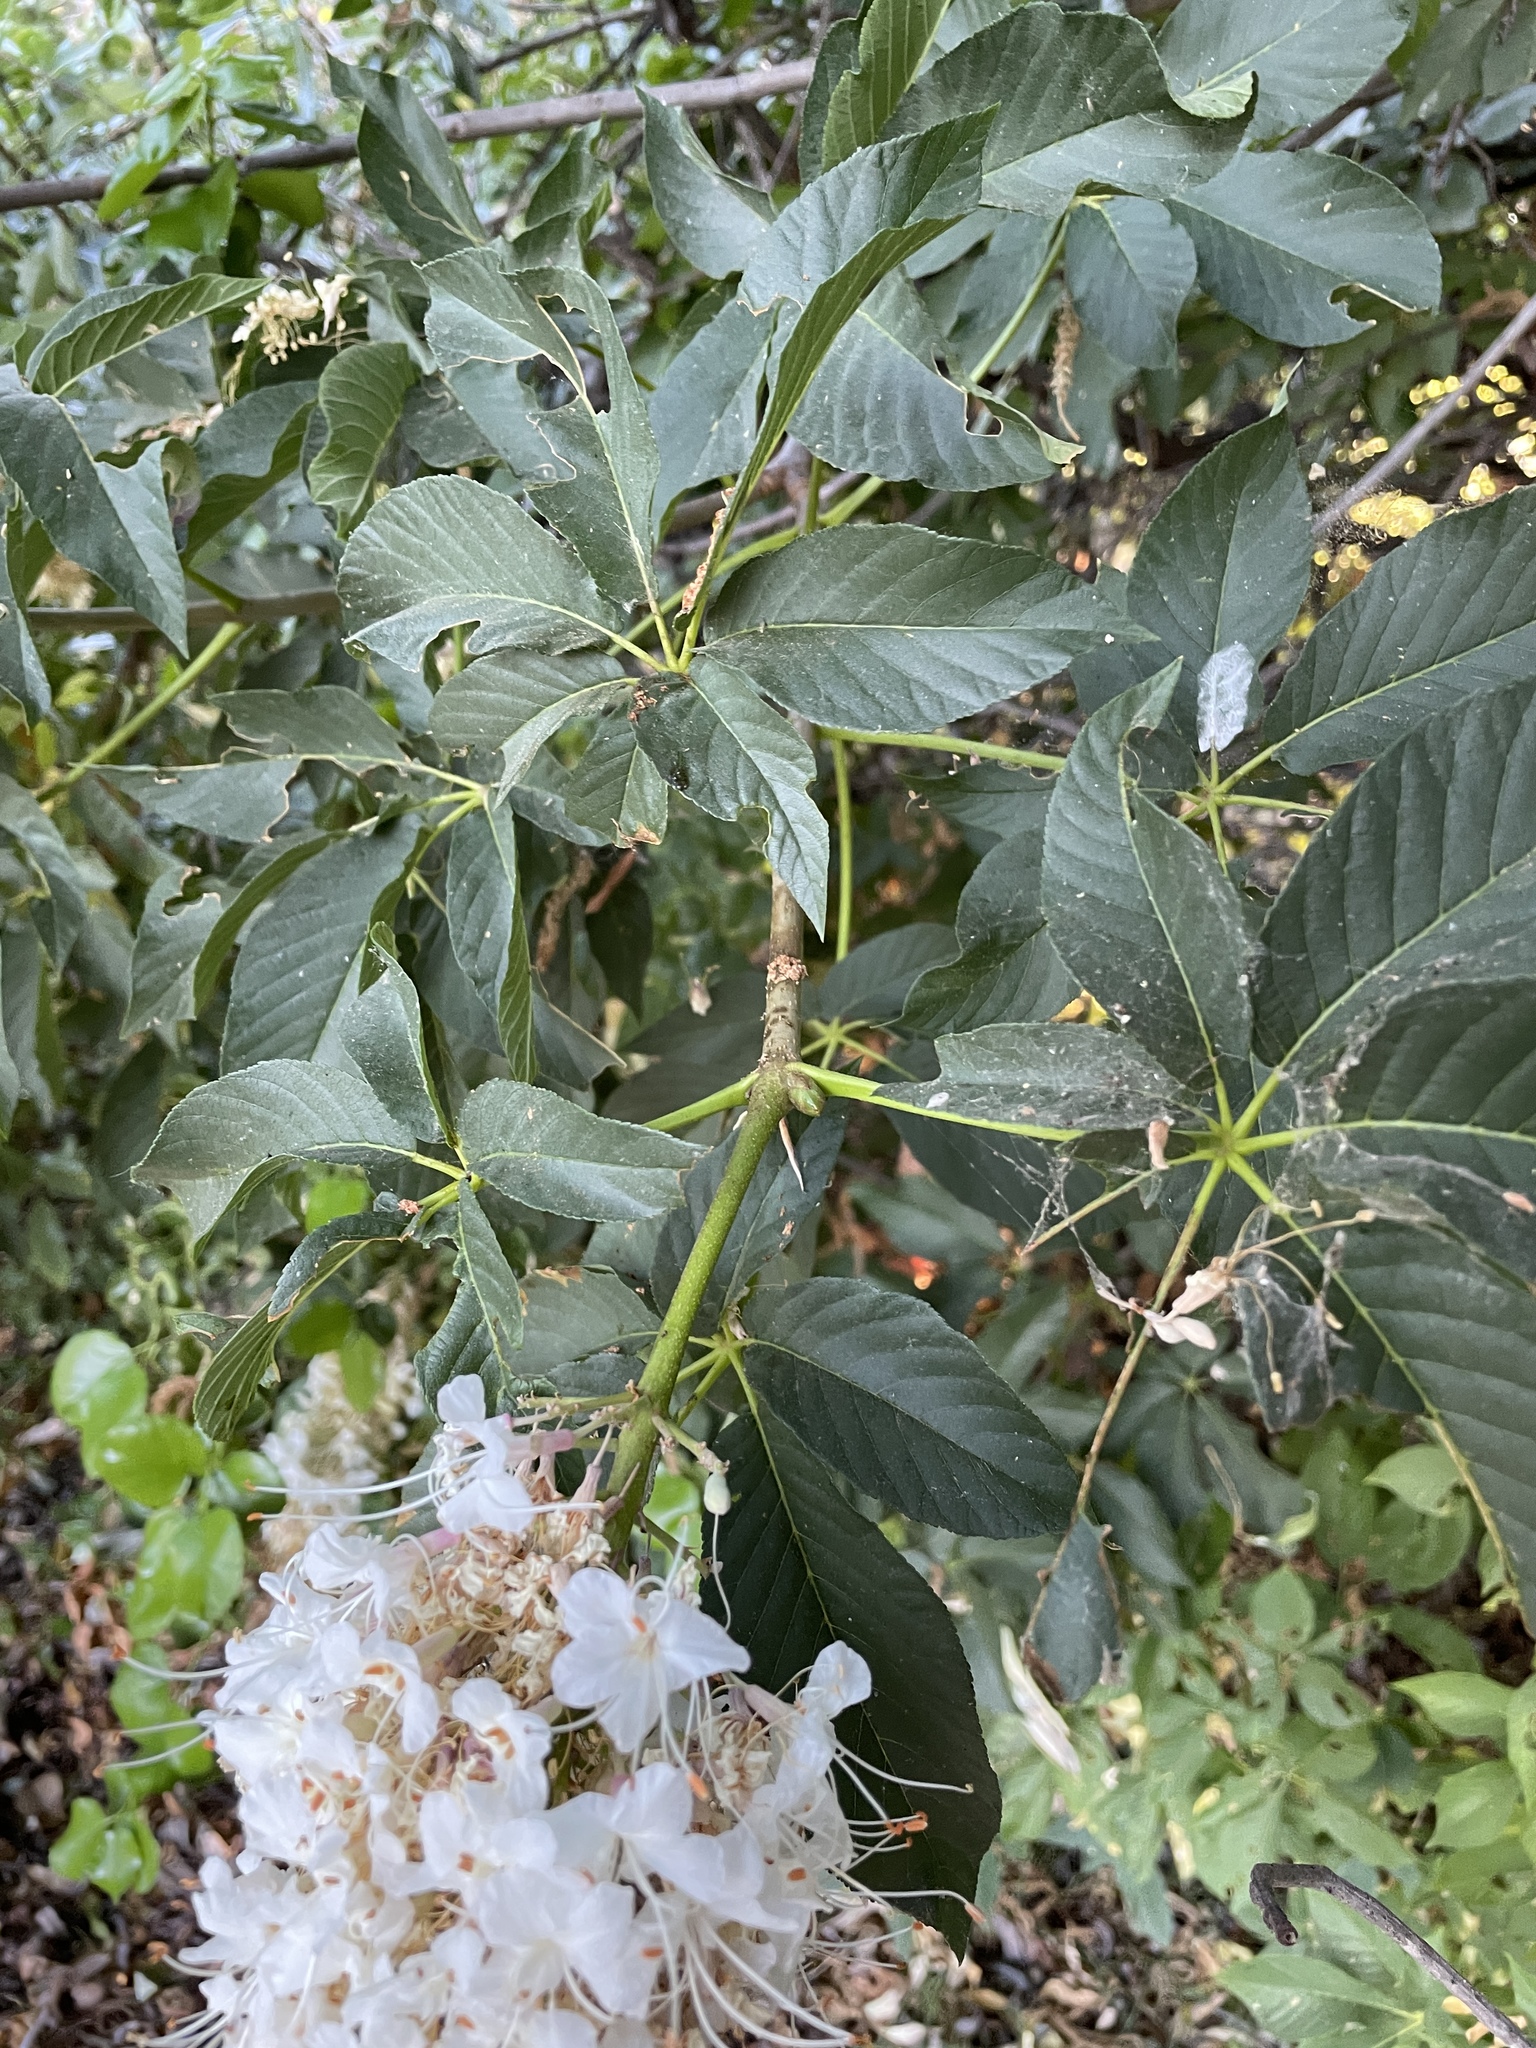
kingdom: Plantae
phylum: Tracheophyta
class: Magnoliopsida
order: Sapindales
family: Sapindaceae
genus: Aesculus
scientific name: Aesculus californica
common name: California buckeye
